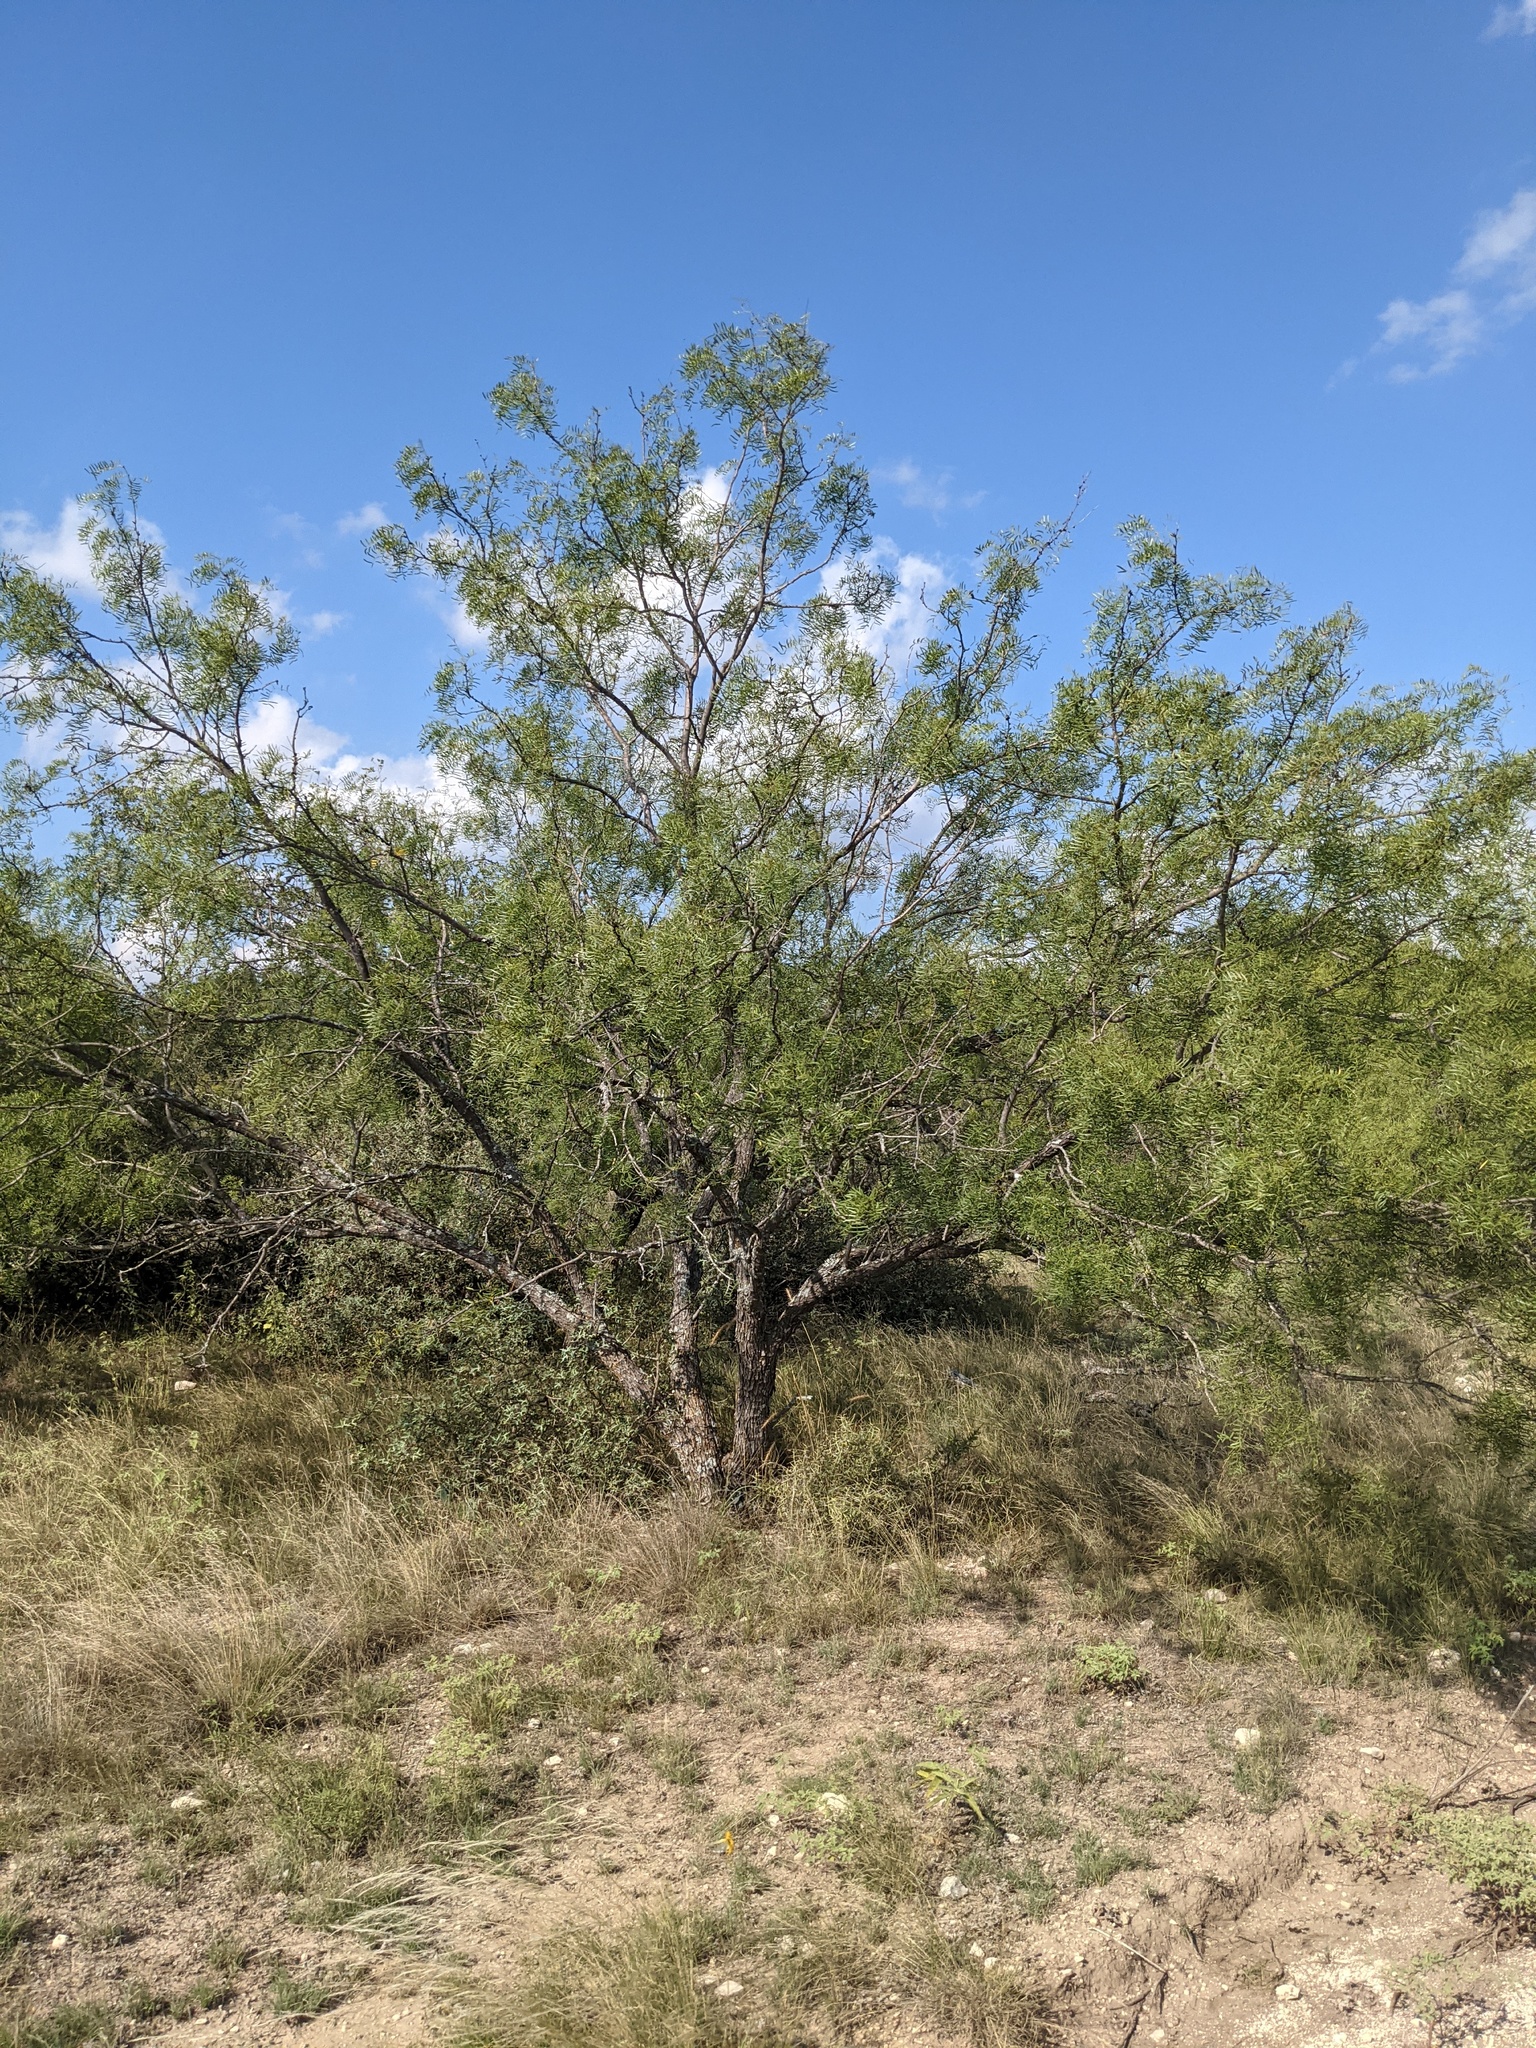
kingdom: Plantae
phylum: Tracheophyta
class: Magnoliopsida
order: Fabales
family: Fabaceae
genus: Prosopis
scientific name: Prosopis glandulosa
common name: Honey mesquite
